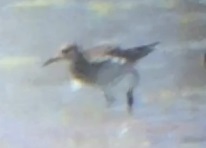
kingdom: Animalia
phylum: Chordata
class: Aves
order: Charadriiformes
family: Scolopacidae
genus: Calidris
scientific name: Calidris melanotos
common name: Pectoral sandpiper
